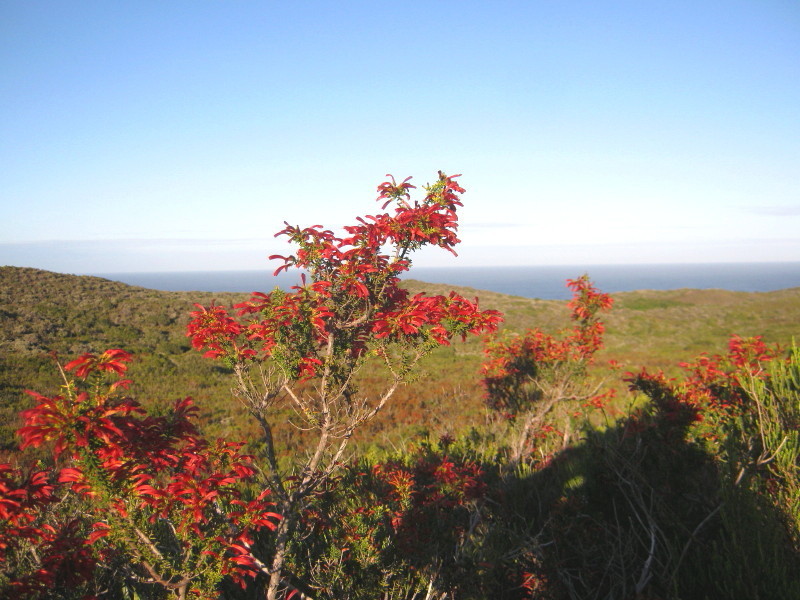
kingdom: Plantae
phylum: Tracheophyta
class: Magnoliopsida
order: Ericales
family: Ericaceae
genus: Erica
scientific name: Erica glandulosa
